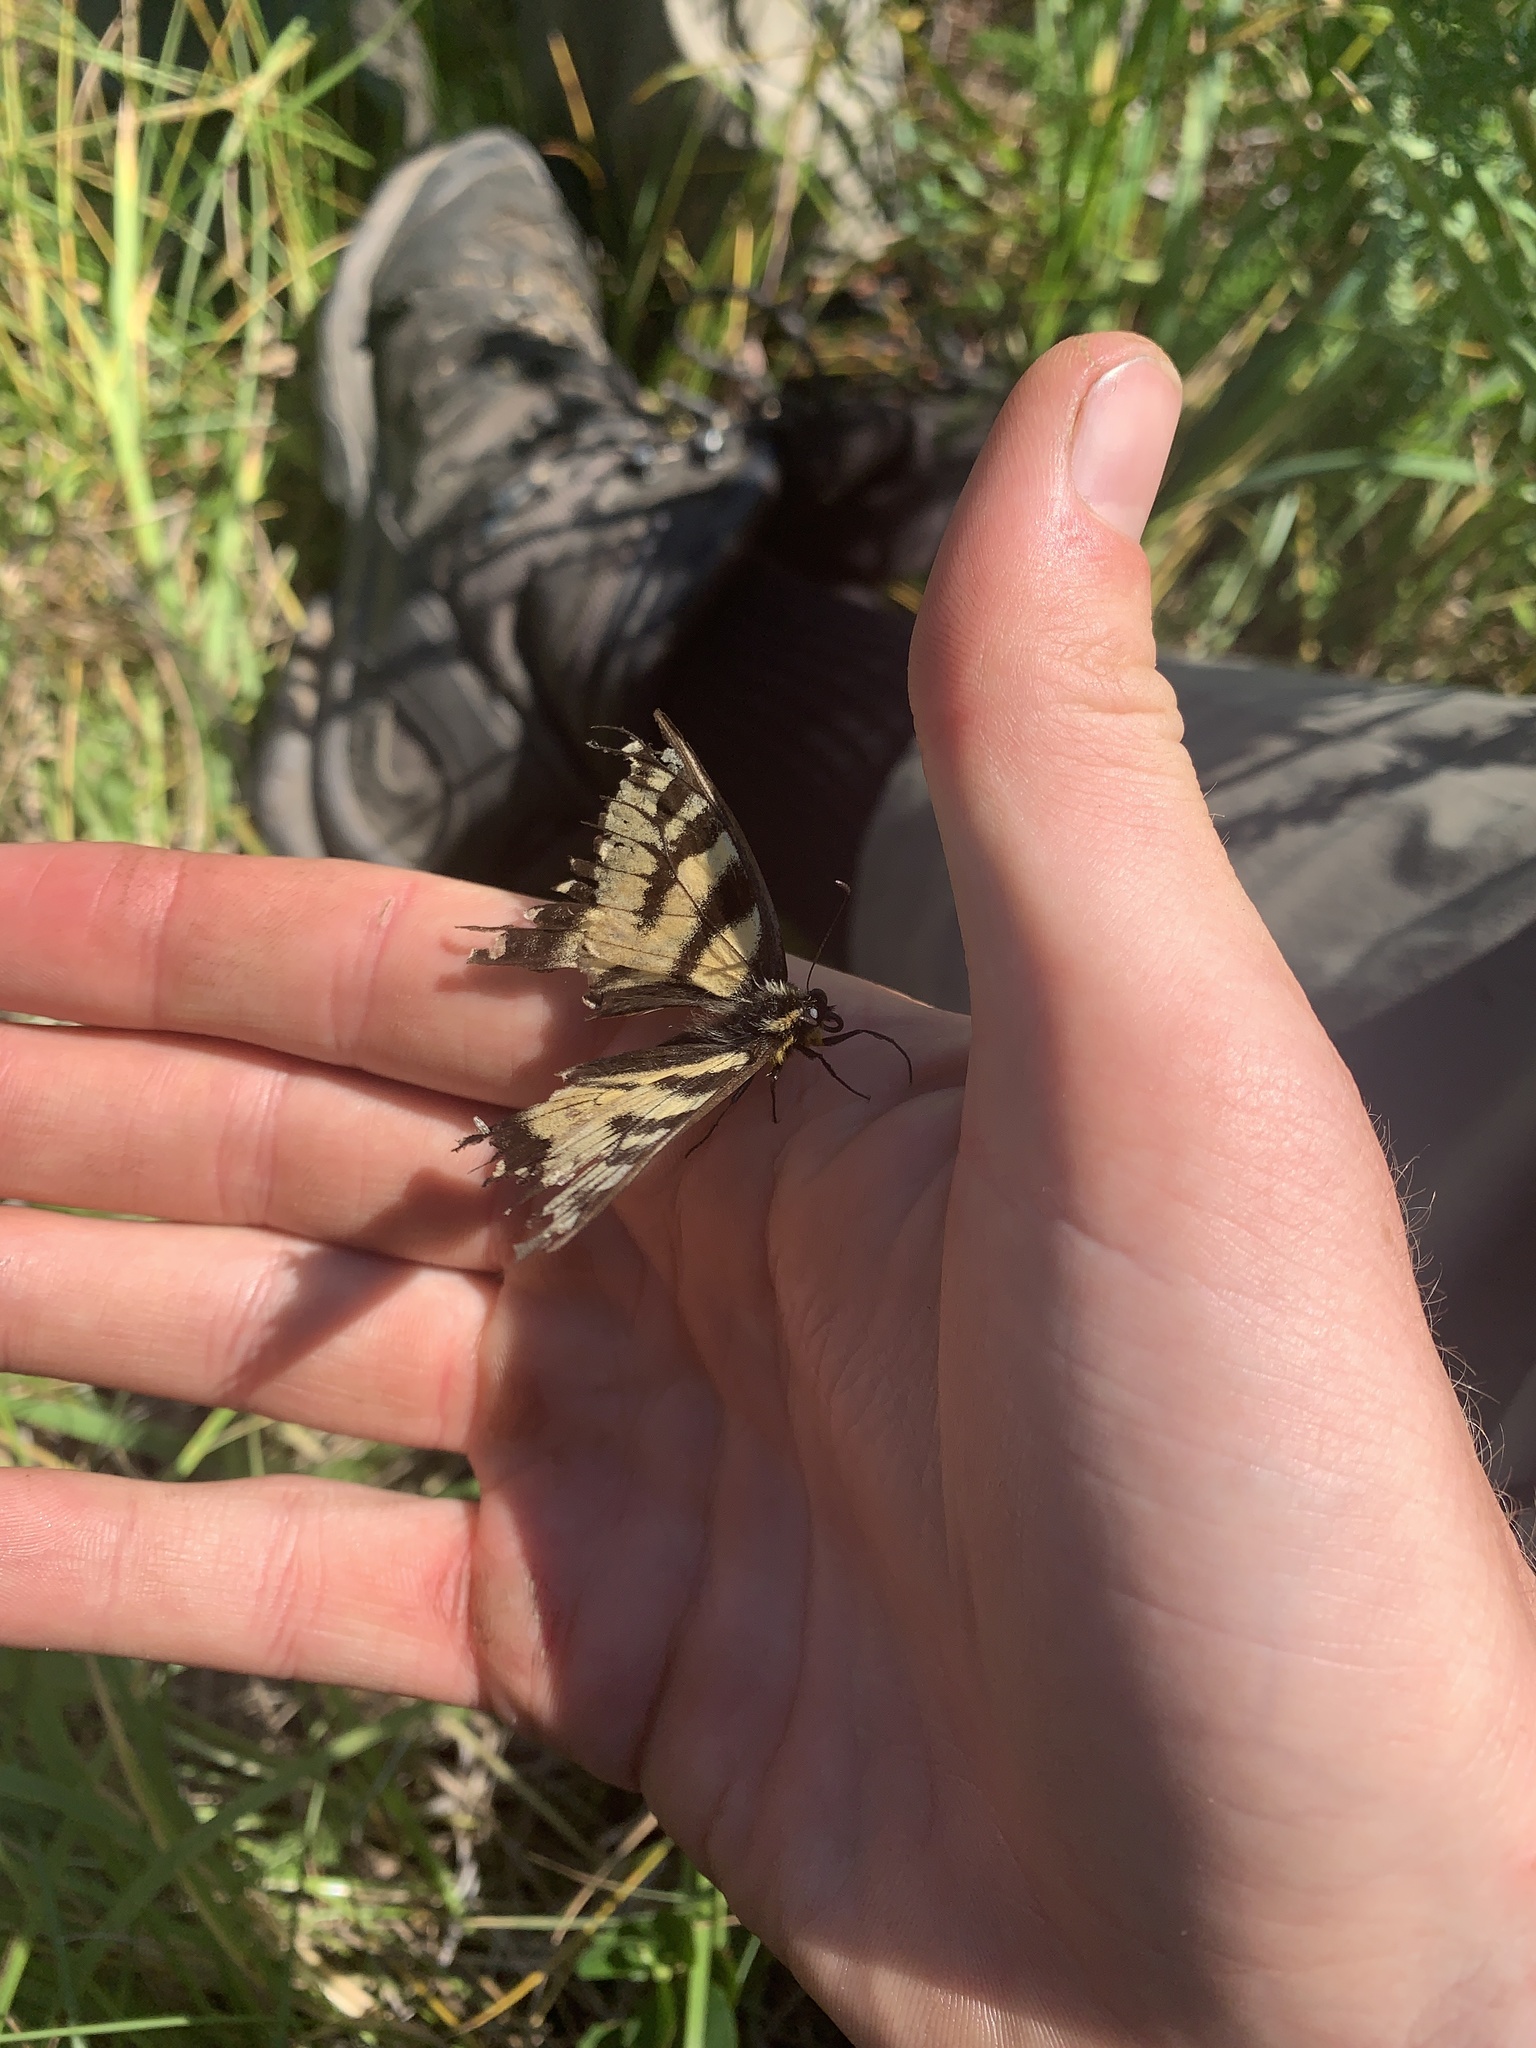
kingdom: Animalia
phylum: Arthropoda
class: Insecta
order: Lepidoptera
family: Papilionidae
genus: Papilio
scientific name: Papilio canadensis
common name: Canadian tiger swallowtail
